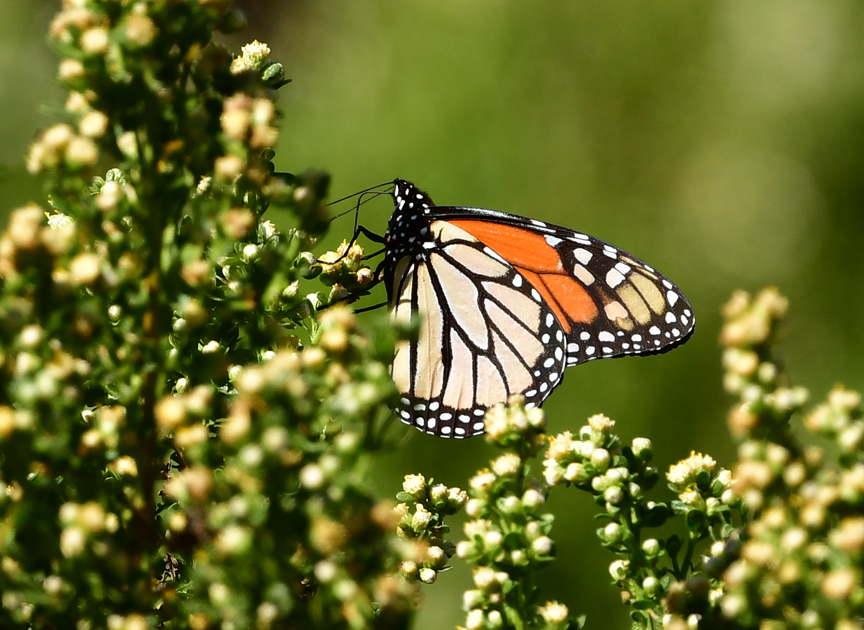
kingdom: Animalia
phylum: Arthropoda
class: Insecta
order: Lepidoptera
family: Nymphalidae
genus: Danaus
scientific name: Danaus plexippus
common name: Monarch
